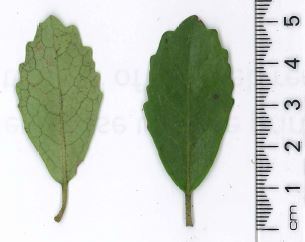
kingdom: Plantae
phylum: Tracheophyta
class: Magnoliopsida
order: Apiales
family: Pennantiaceae
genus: Pennantia
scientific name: Pennantia corymbosa
